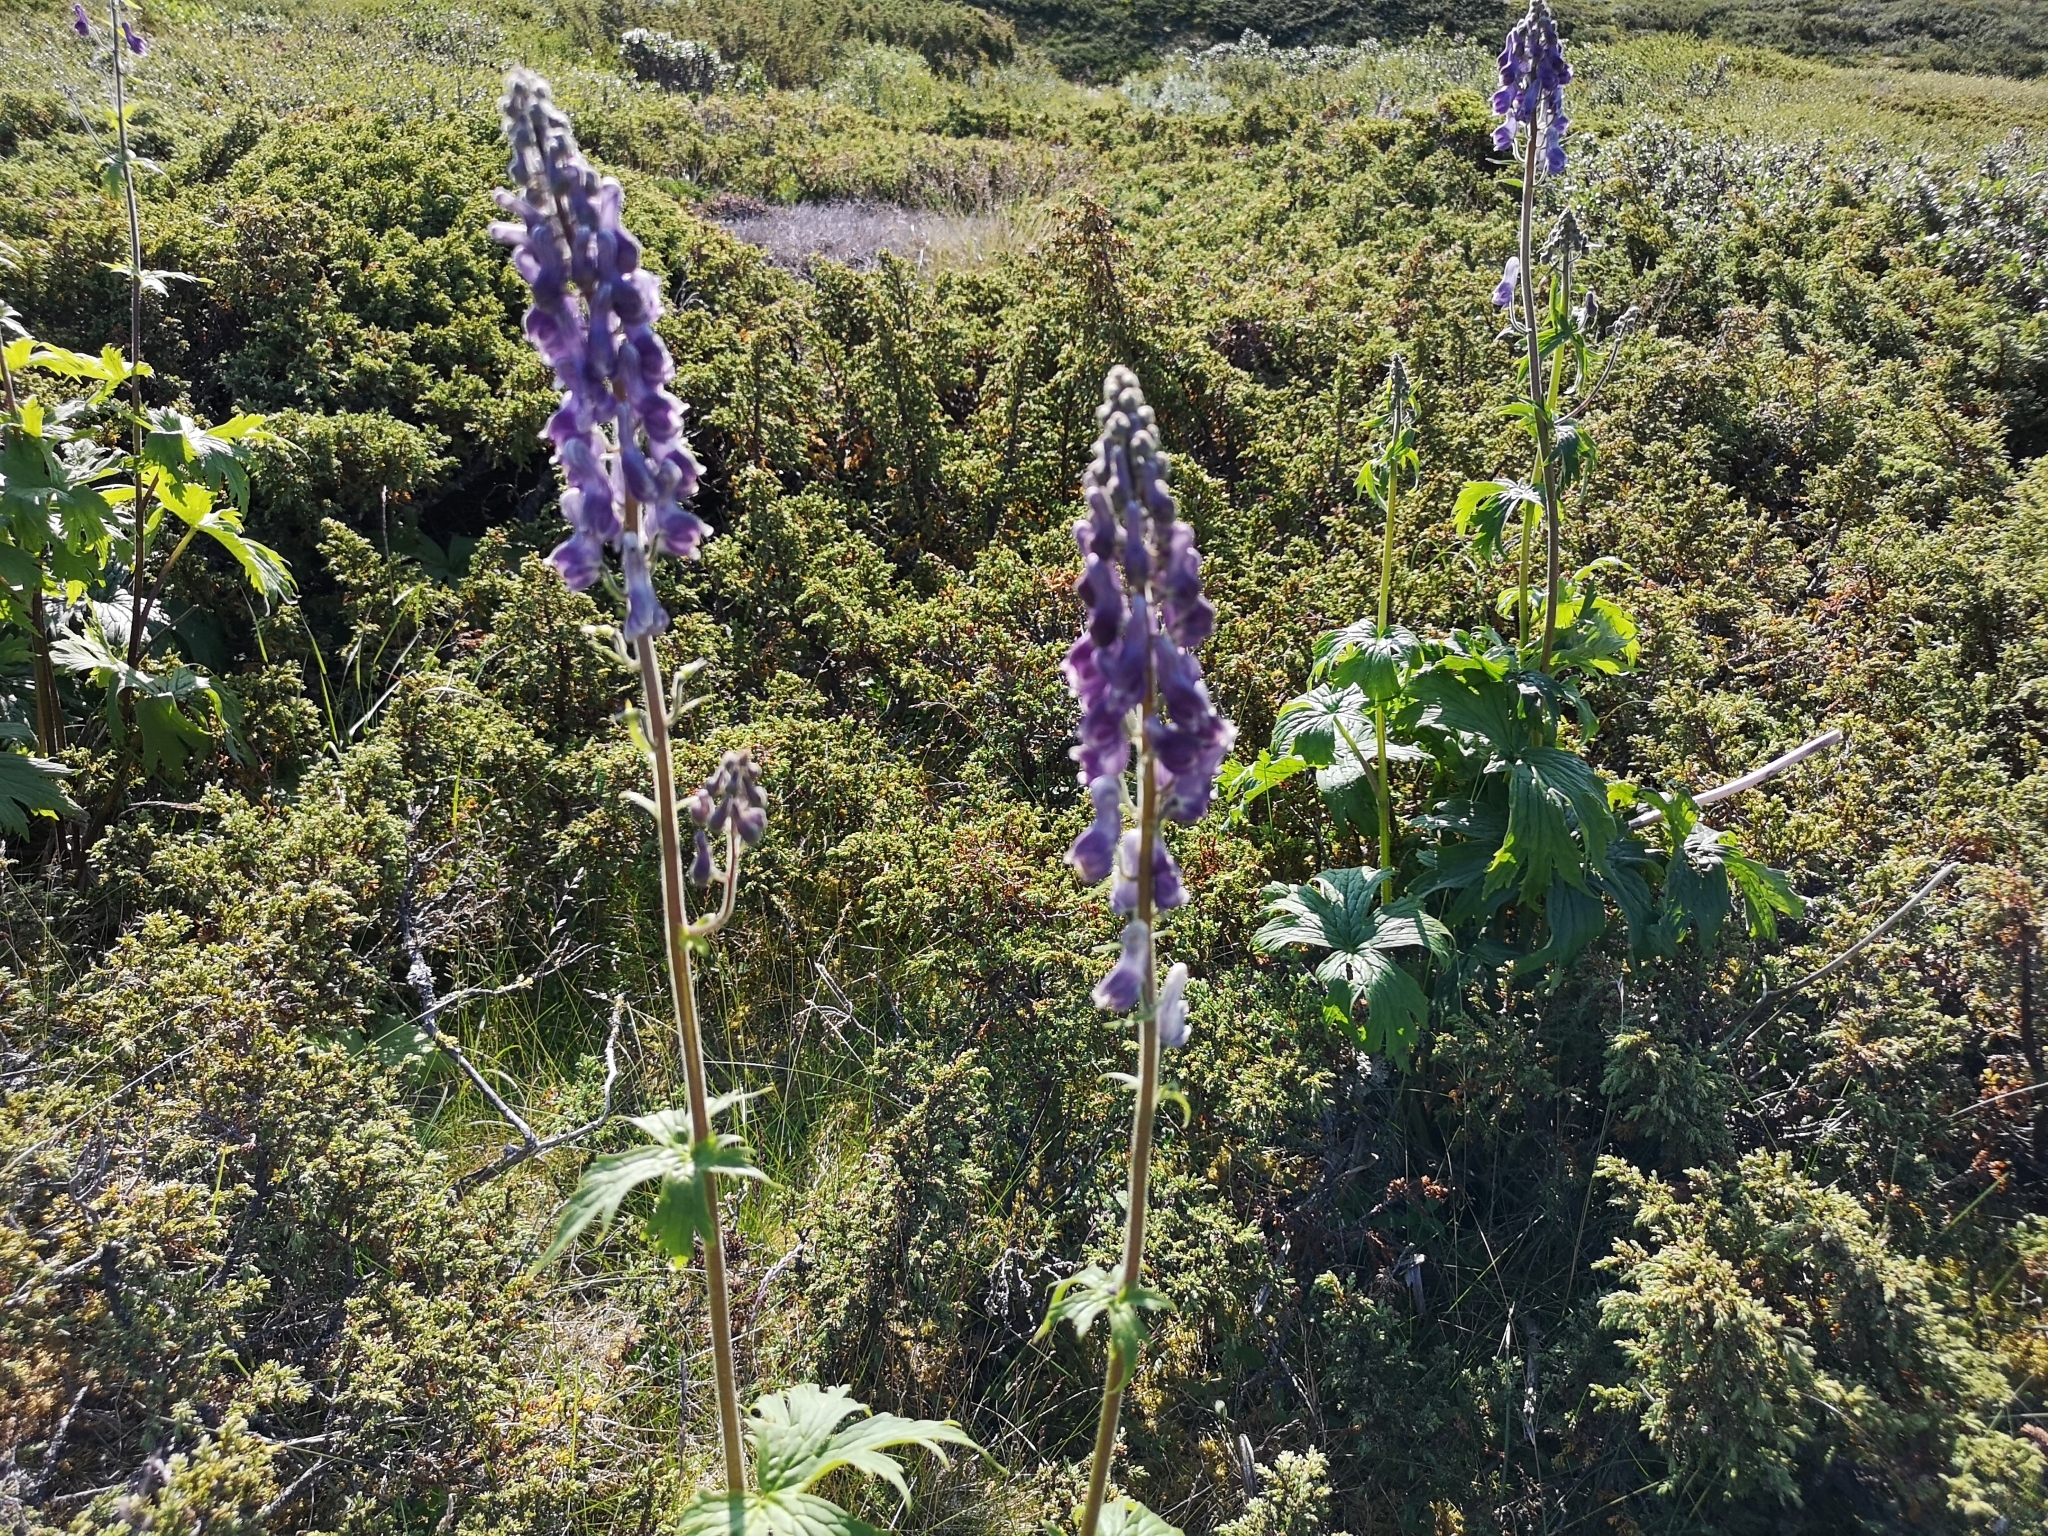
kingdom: Plantae
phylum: Tracheophyta
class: Magnoliopsida
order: Ranunculales
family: Ranunculaceae
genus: Aconitum
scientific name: Aconitum septentrionale
